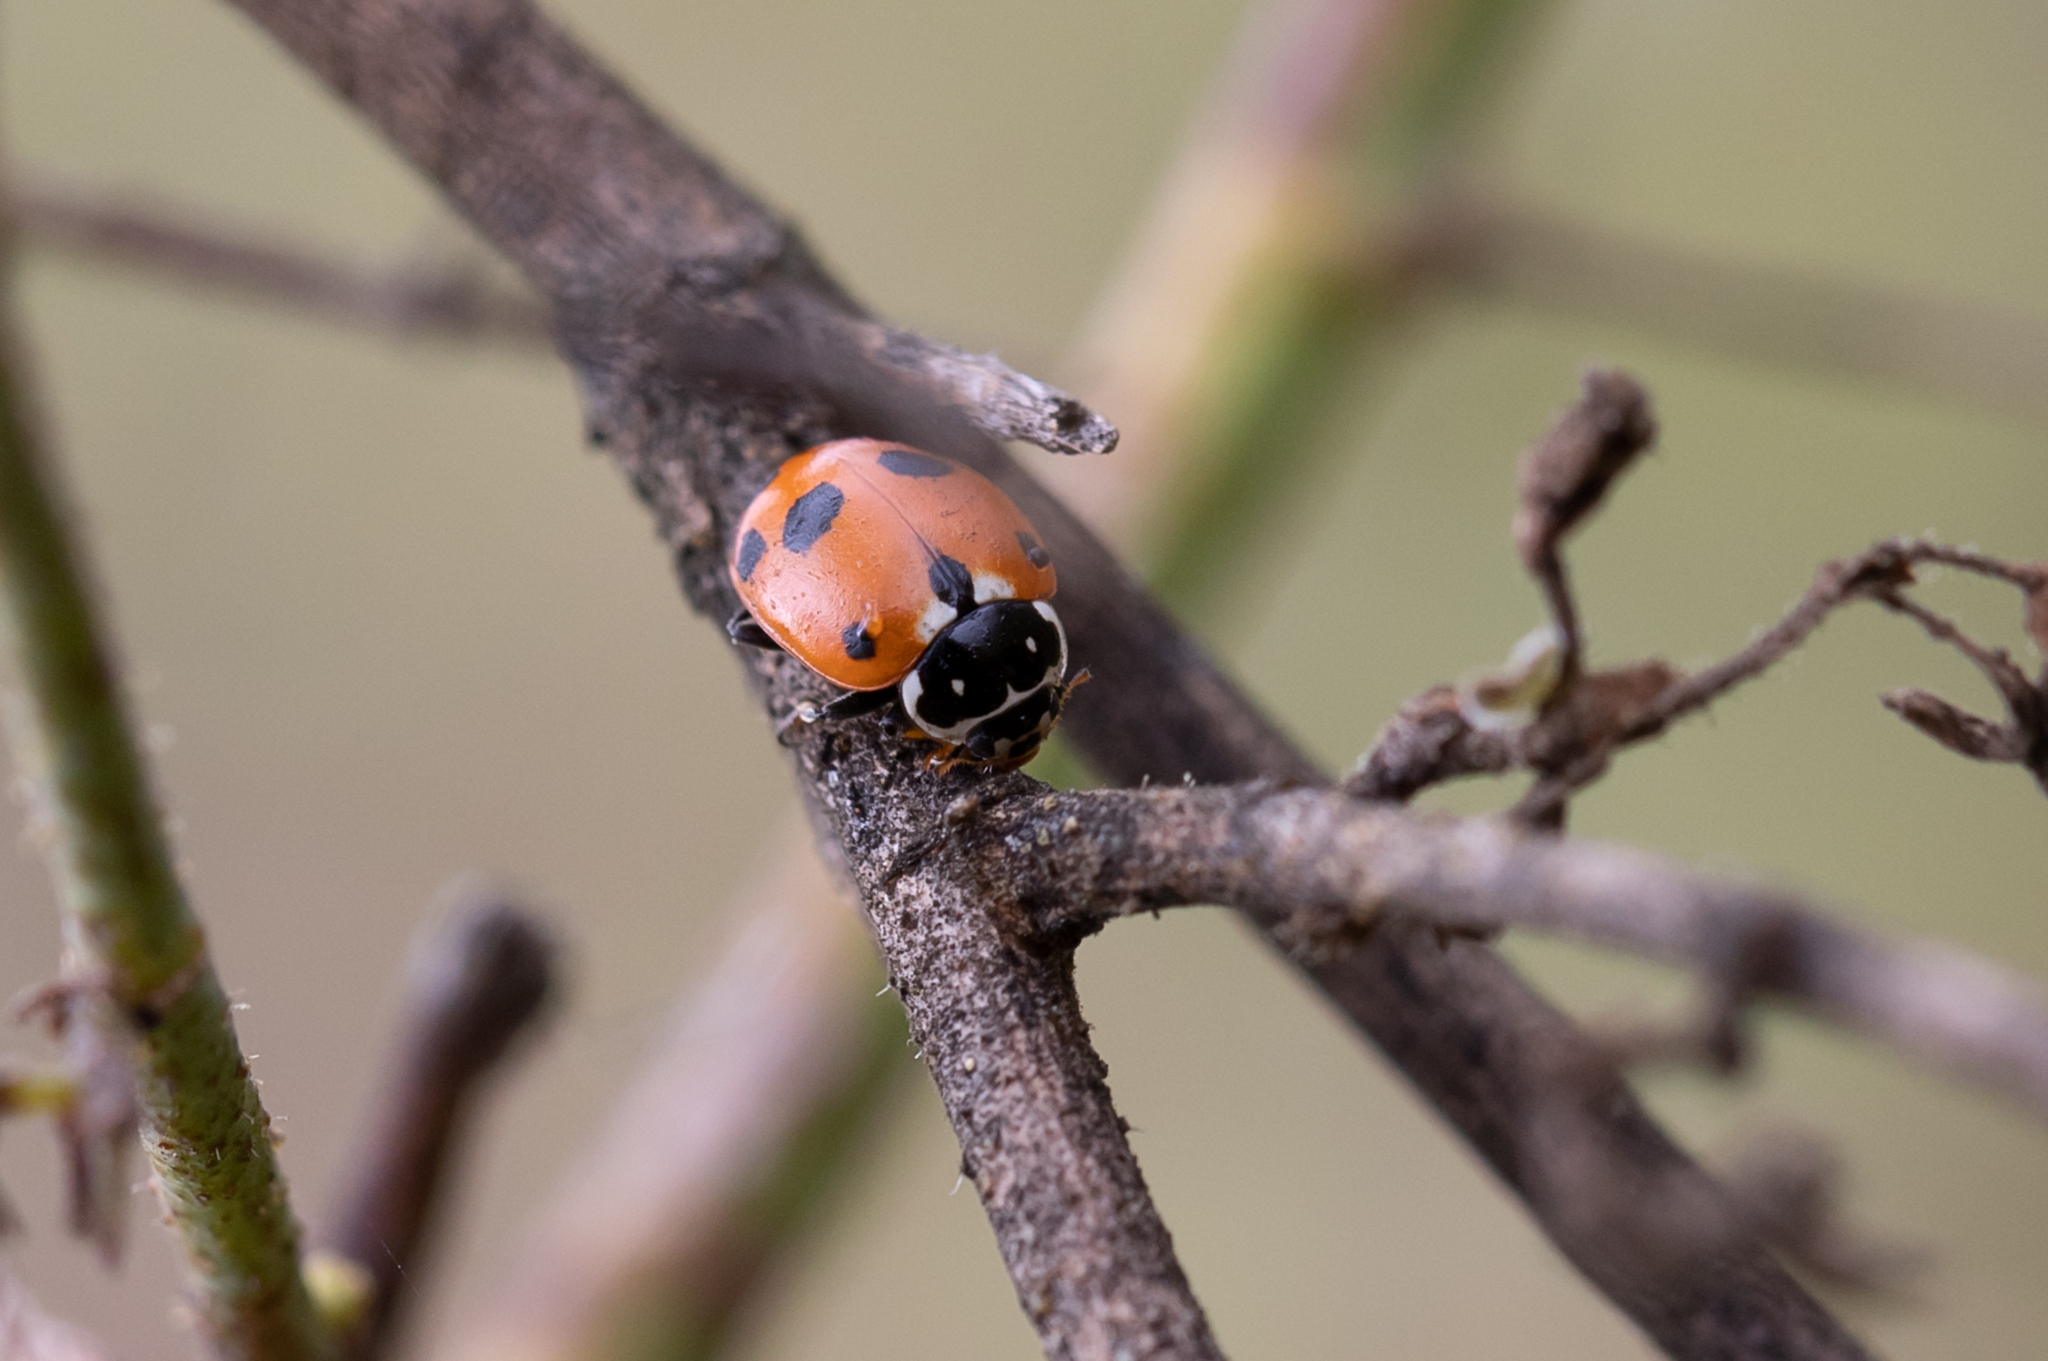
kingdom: Animalia
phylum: Arthropoda
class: Insecta
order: Coleoptera
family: Coccinellidae
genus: Hippodamia
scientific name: Hippodamia variegata
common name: Ladybird beetle
